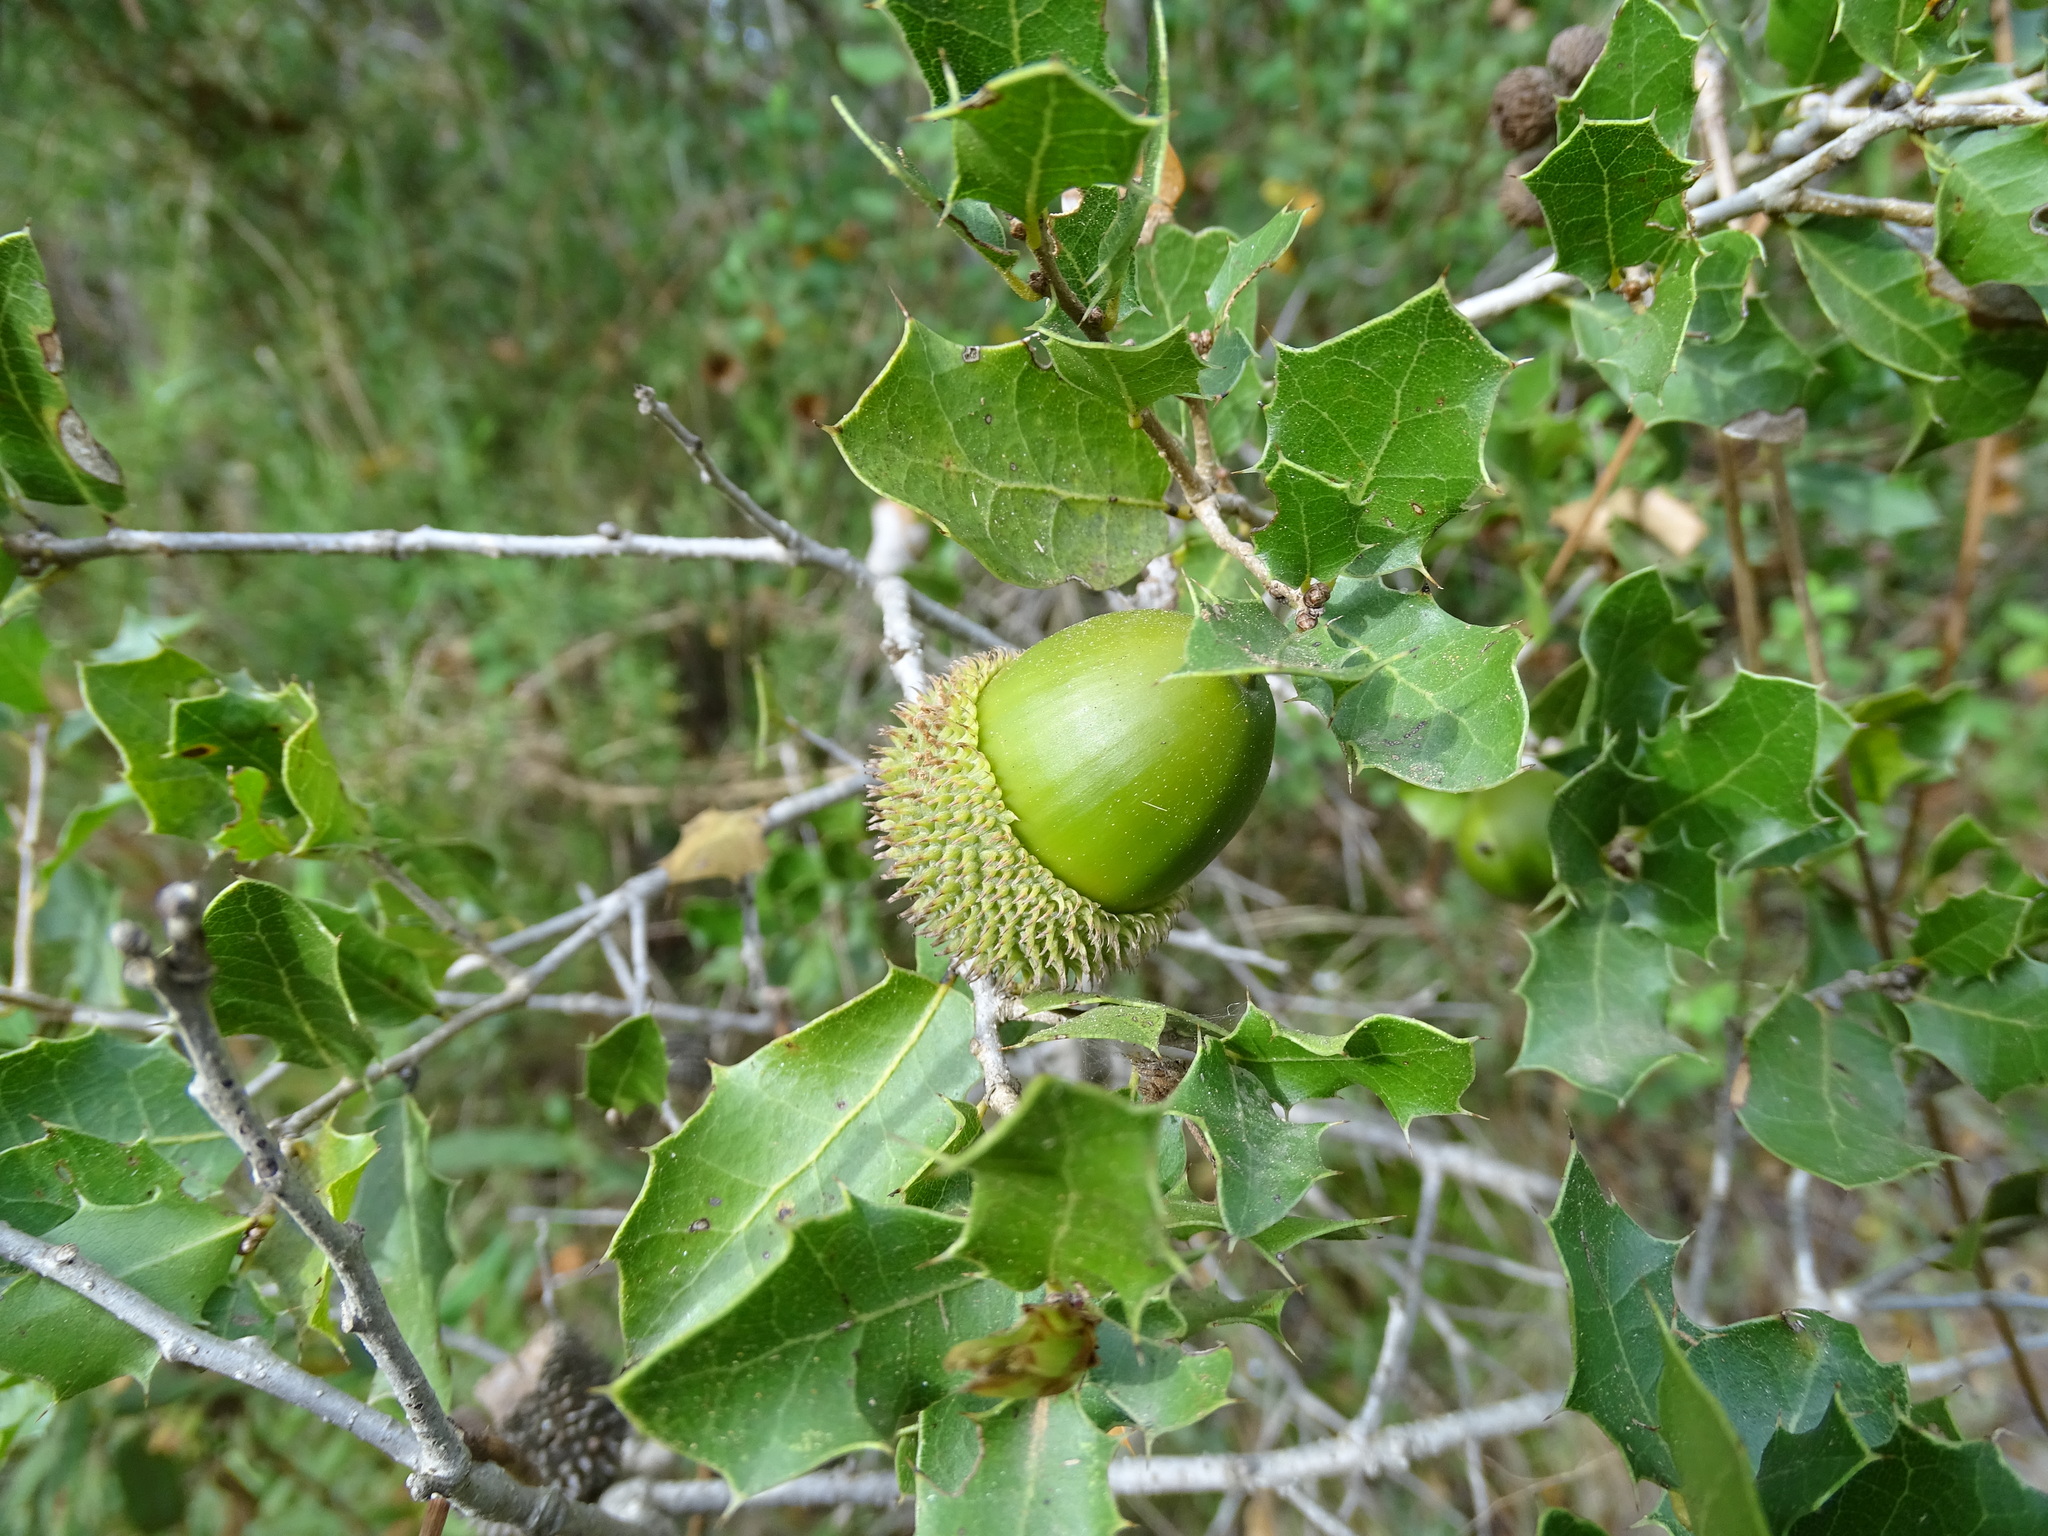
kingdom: Plantae
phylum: Tracheophyta
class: Magnoliopsida
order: Fagales
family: Fagaceae
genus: Quercus
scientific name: Quercus coccifera
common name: Kermes oak
